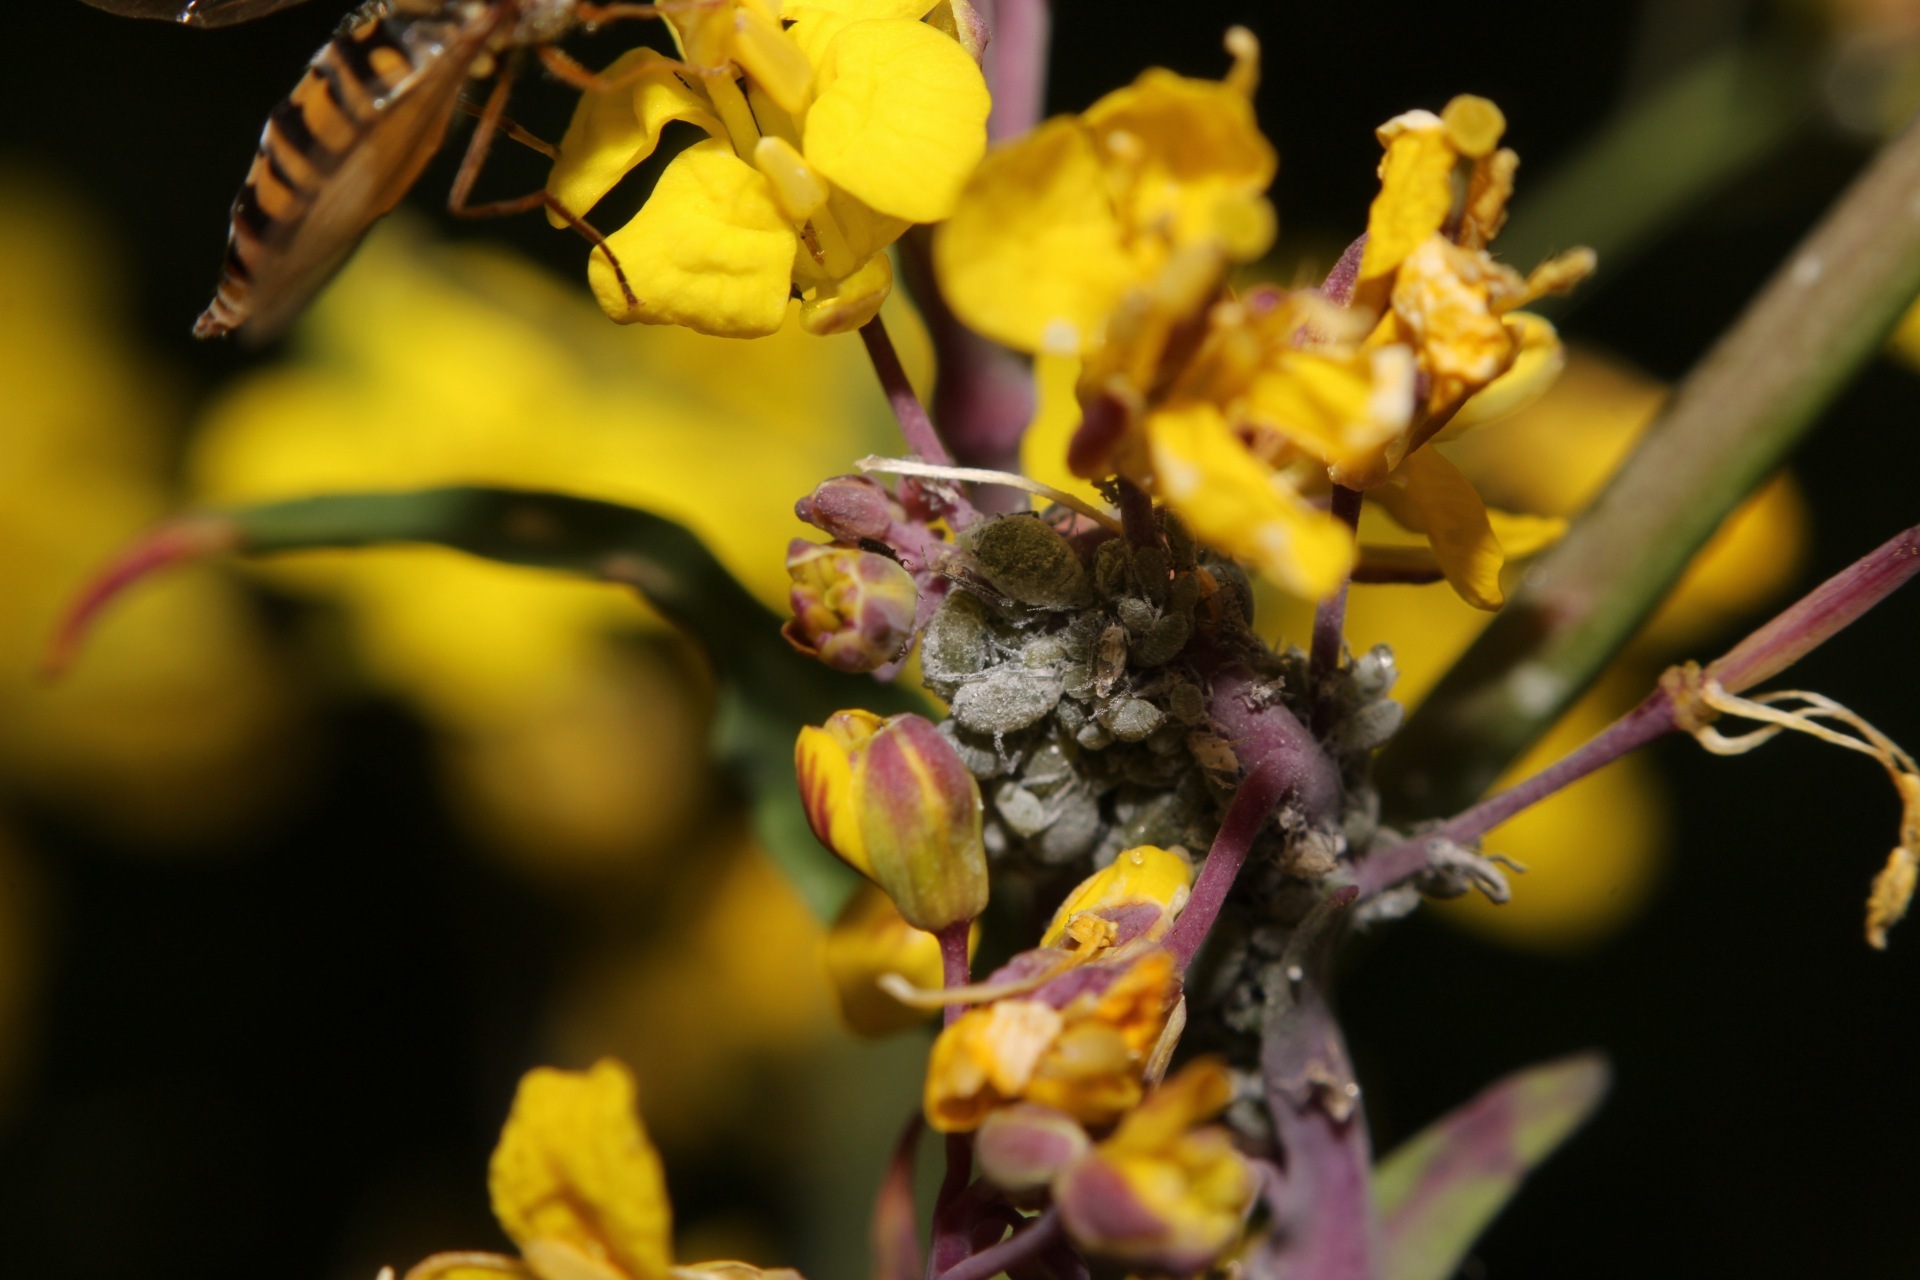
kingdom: Animalia
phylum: Arthropoda
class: Insecta
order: Diptera
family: Syrphidae
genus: Episyrphus
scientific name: Episyrphus balteatus
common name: Marmalade hoverfly
